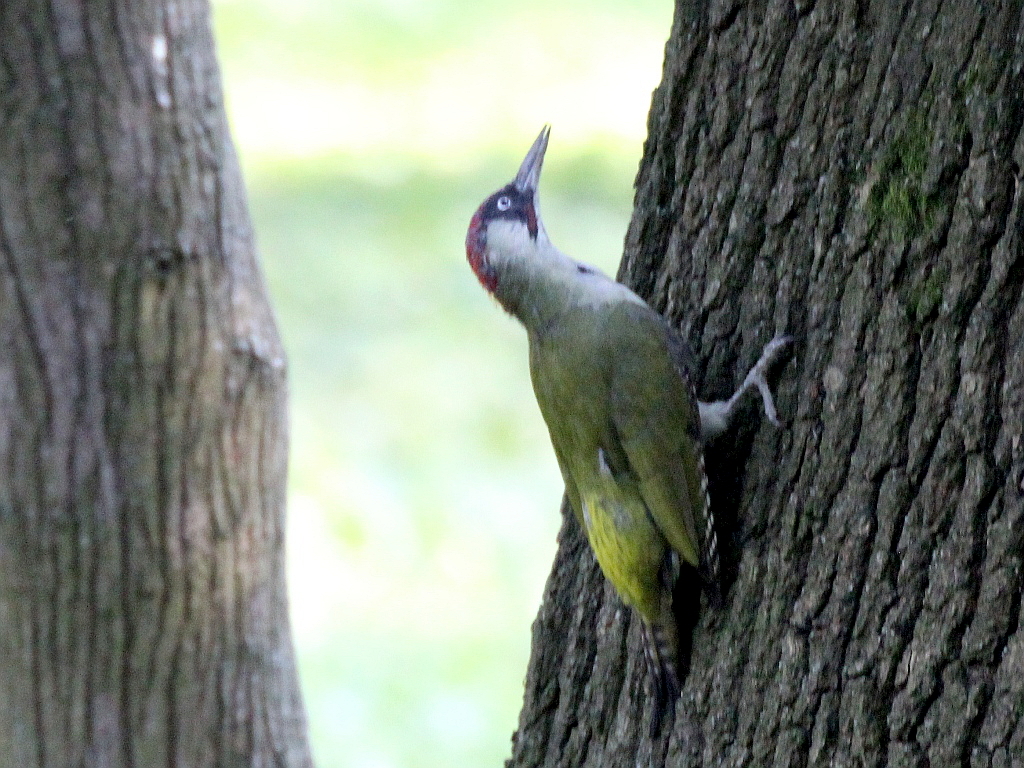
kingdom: Animalia
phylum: Chordata
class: Aves
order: Piciformes
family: Picidae
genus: Picus
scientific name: Picus viridis
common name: European green woodpecker
